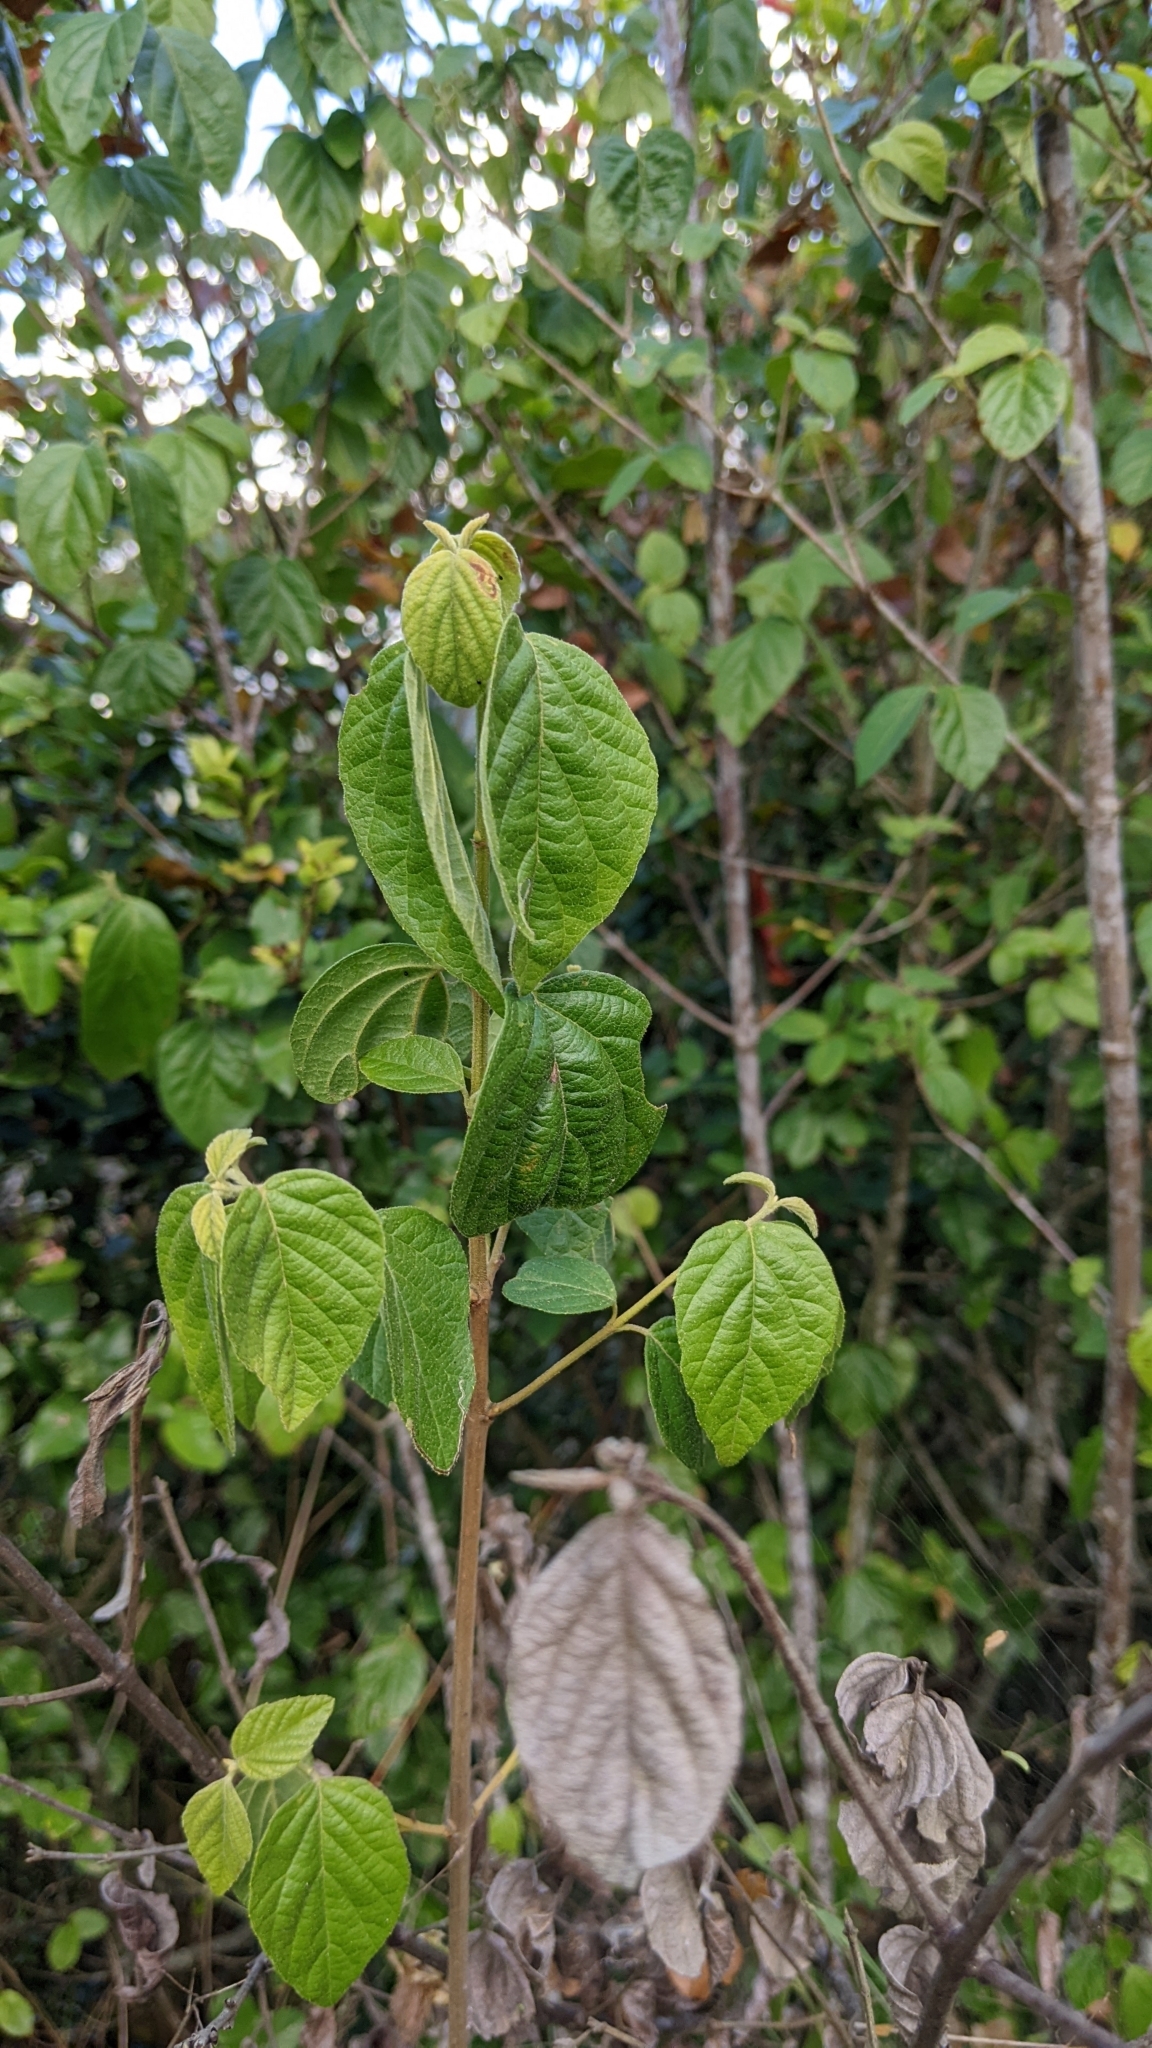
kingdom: Plantae
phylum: Tracheophyta
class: Magnoliopsida
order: Dipsacales
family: Viburnaceae
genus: Viburnum
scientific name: Viburnum luzonicum
